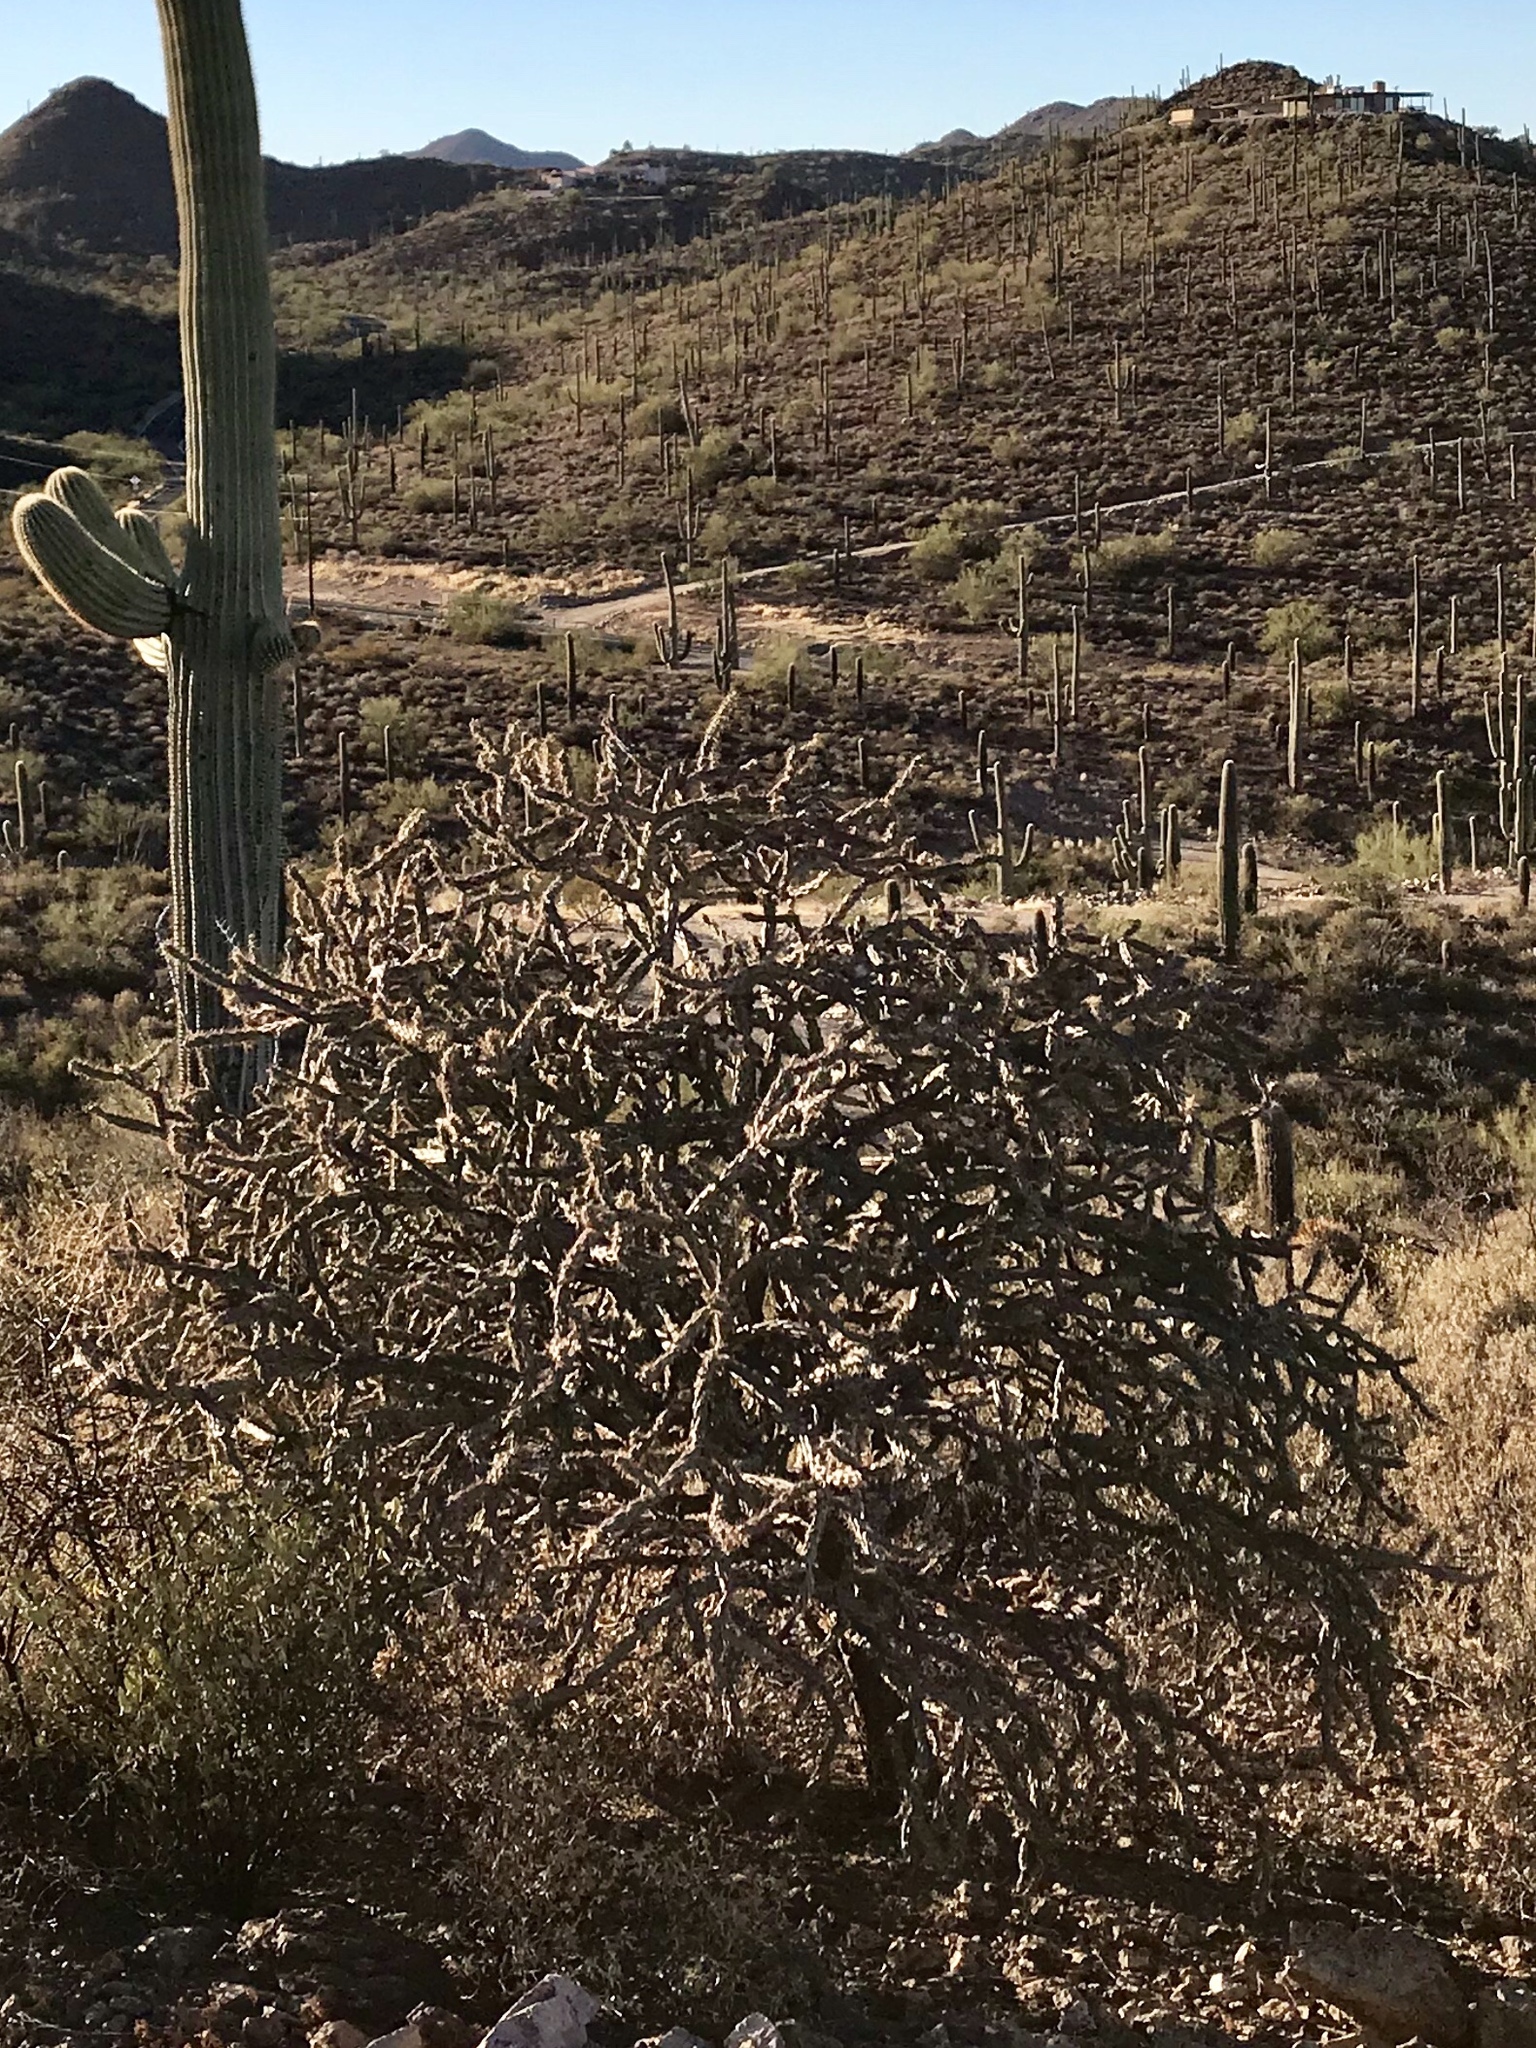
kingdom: Plantae
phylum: Tracheophyta
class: Magnoliopsida
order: Caryophyllales
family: Cactaceae
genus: Cylindropuntia
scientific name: Cylindropuntia thurberi
